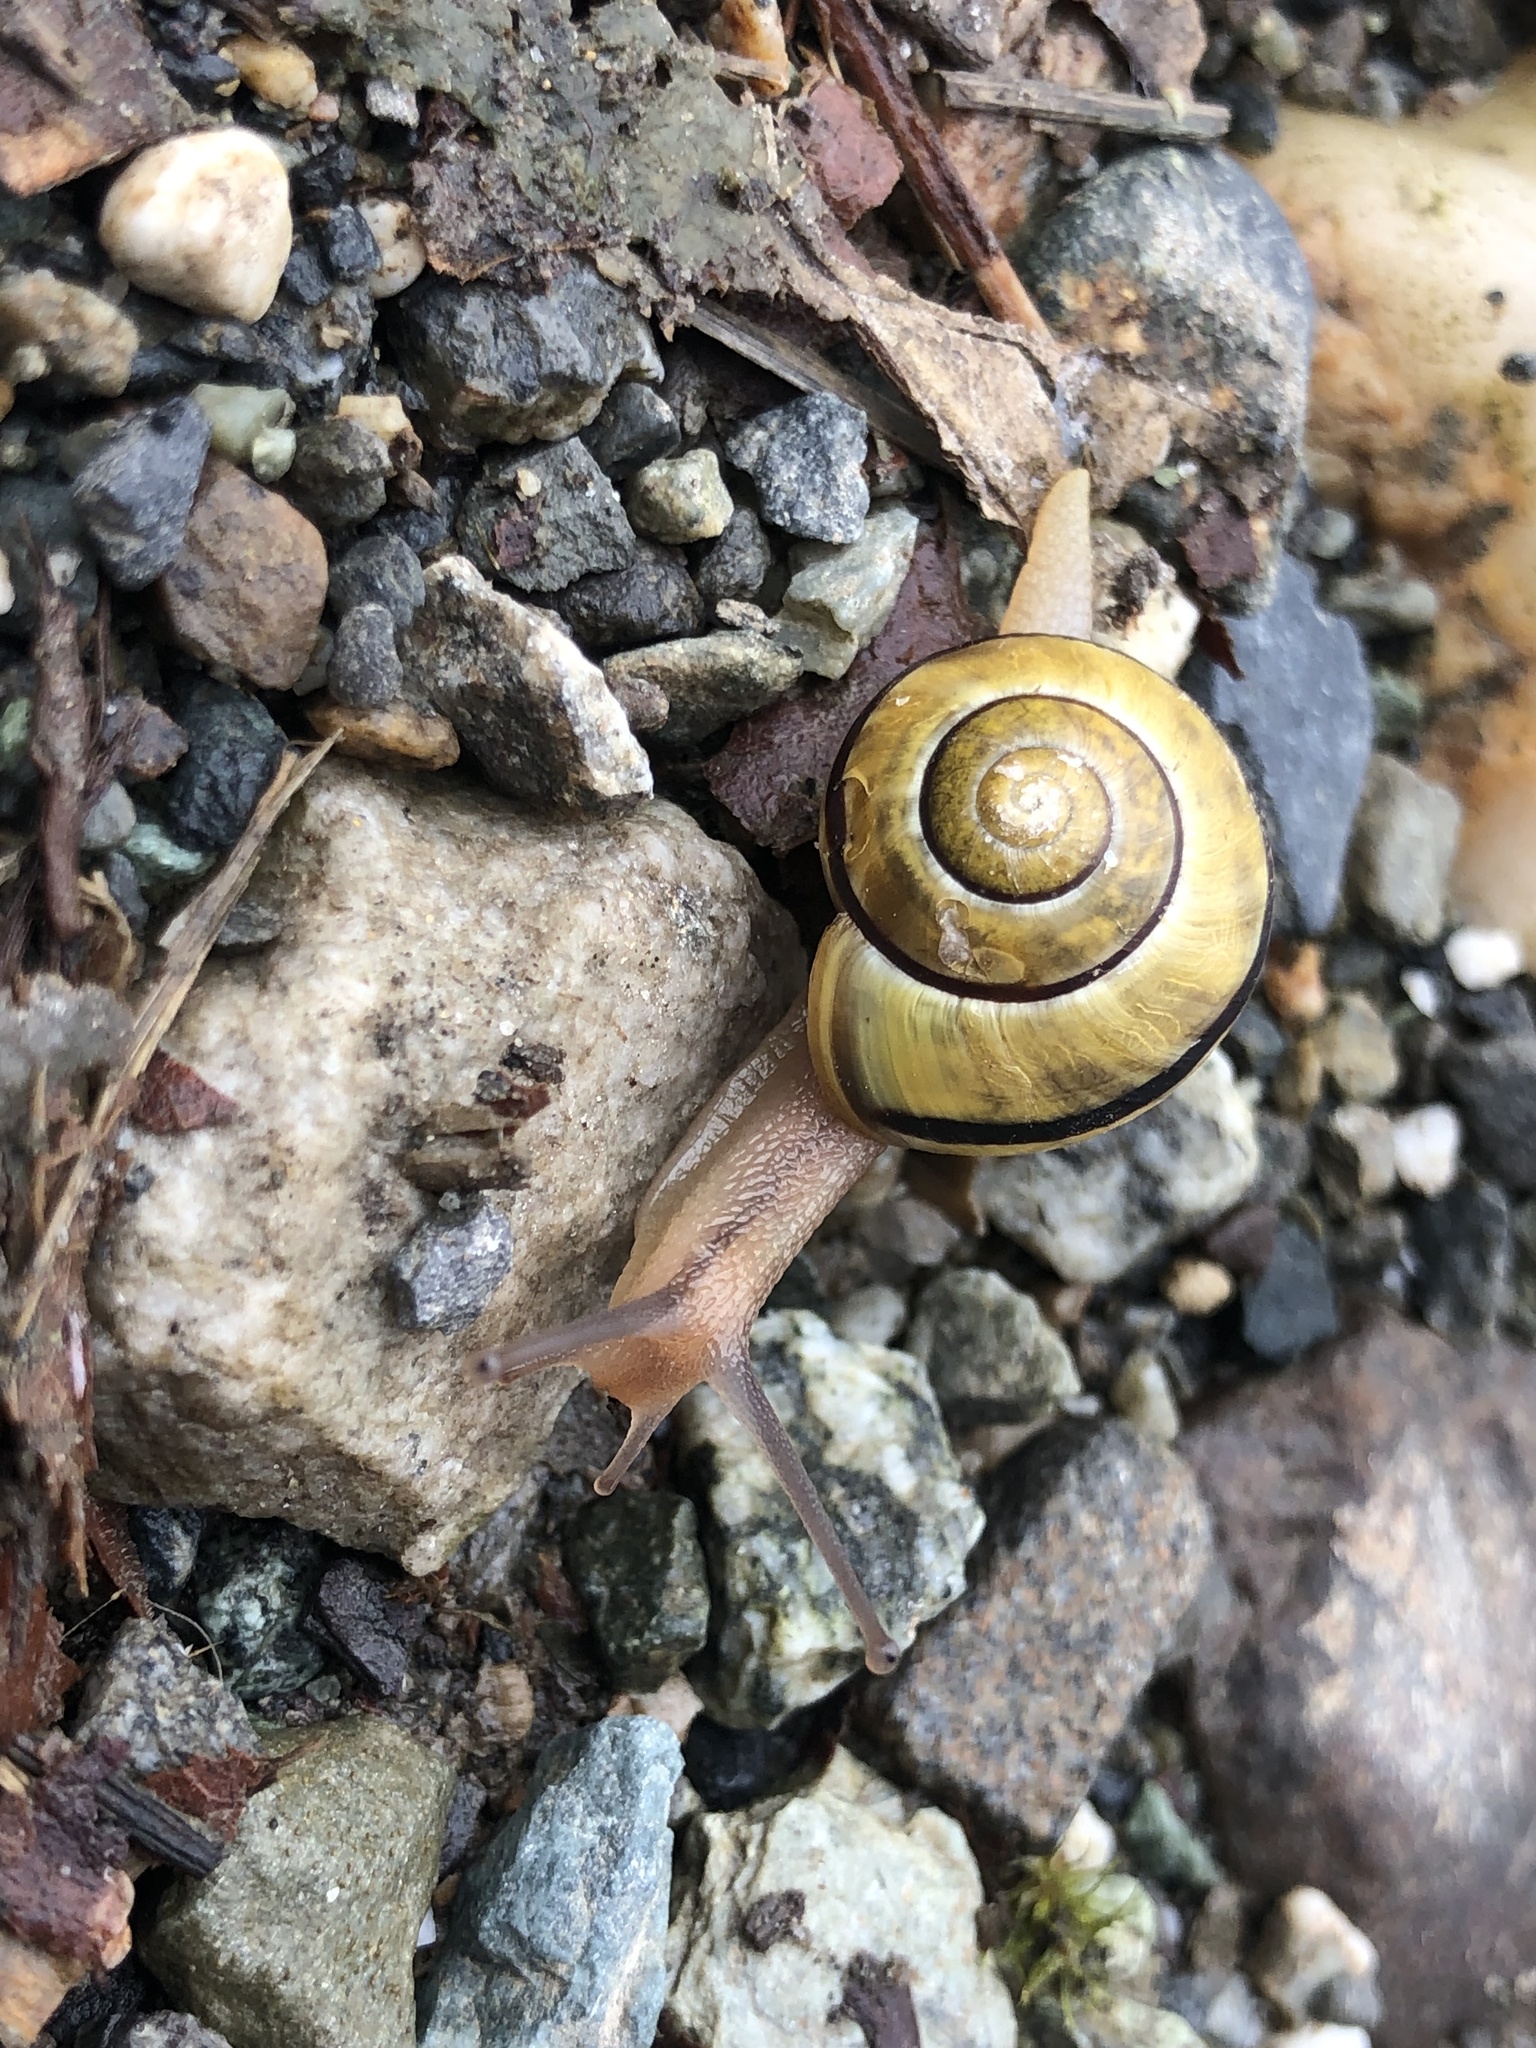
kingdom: Animalia
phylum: Mollusca
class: Gastropoda
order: Stylommatophora
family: Helicidae
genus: Cepaea
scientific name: Cepaea nemoralis
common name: Grovesnail
